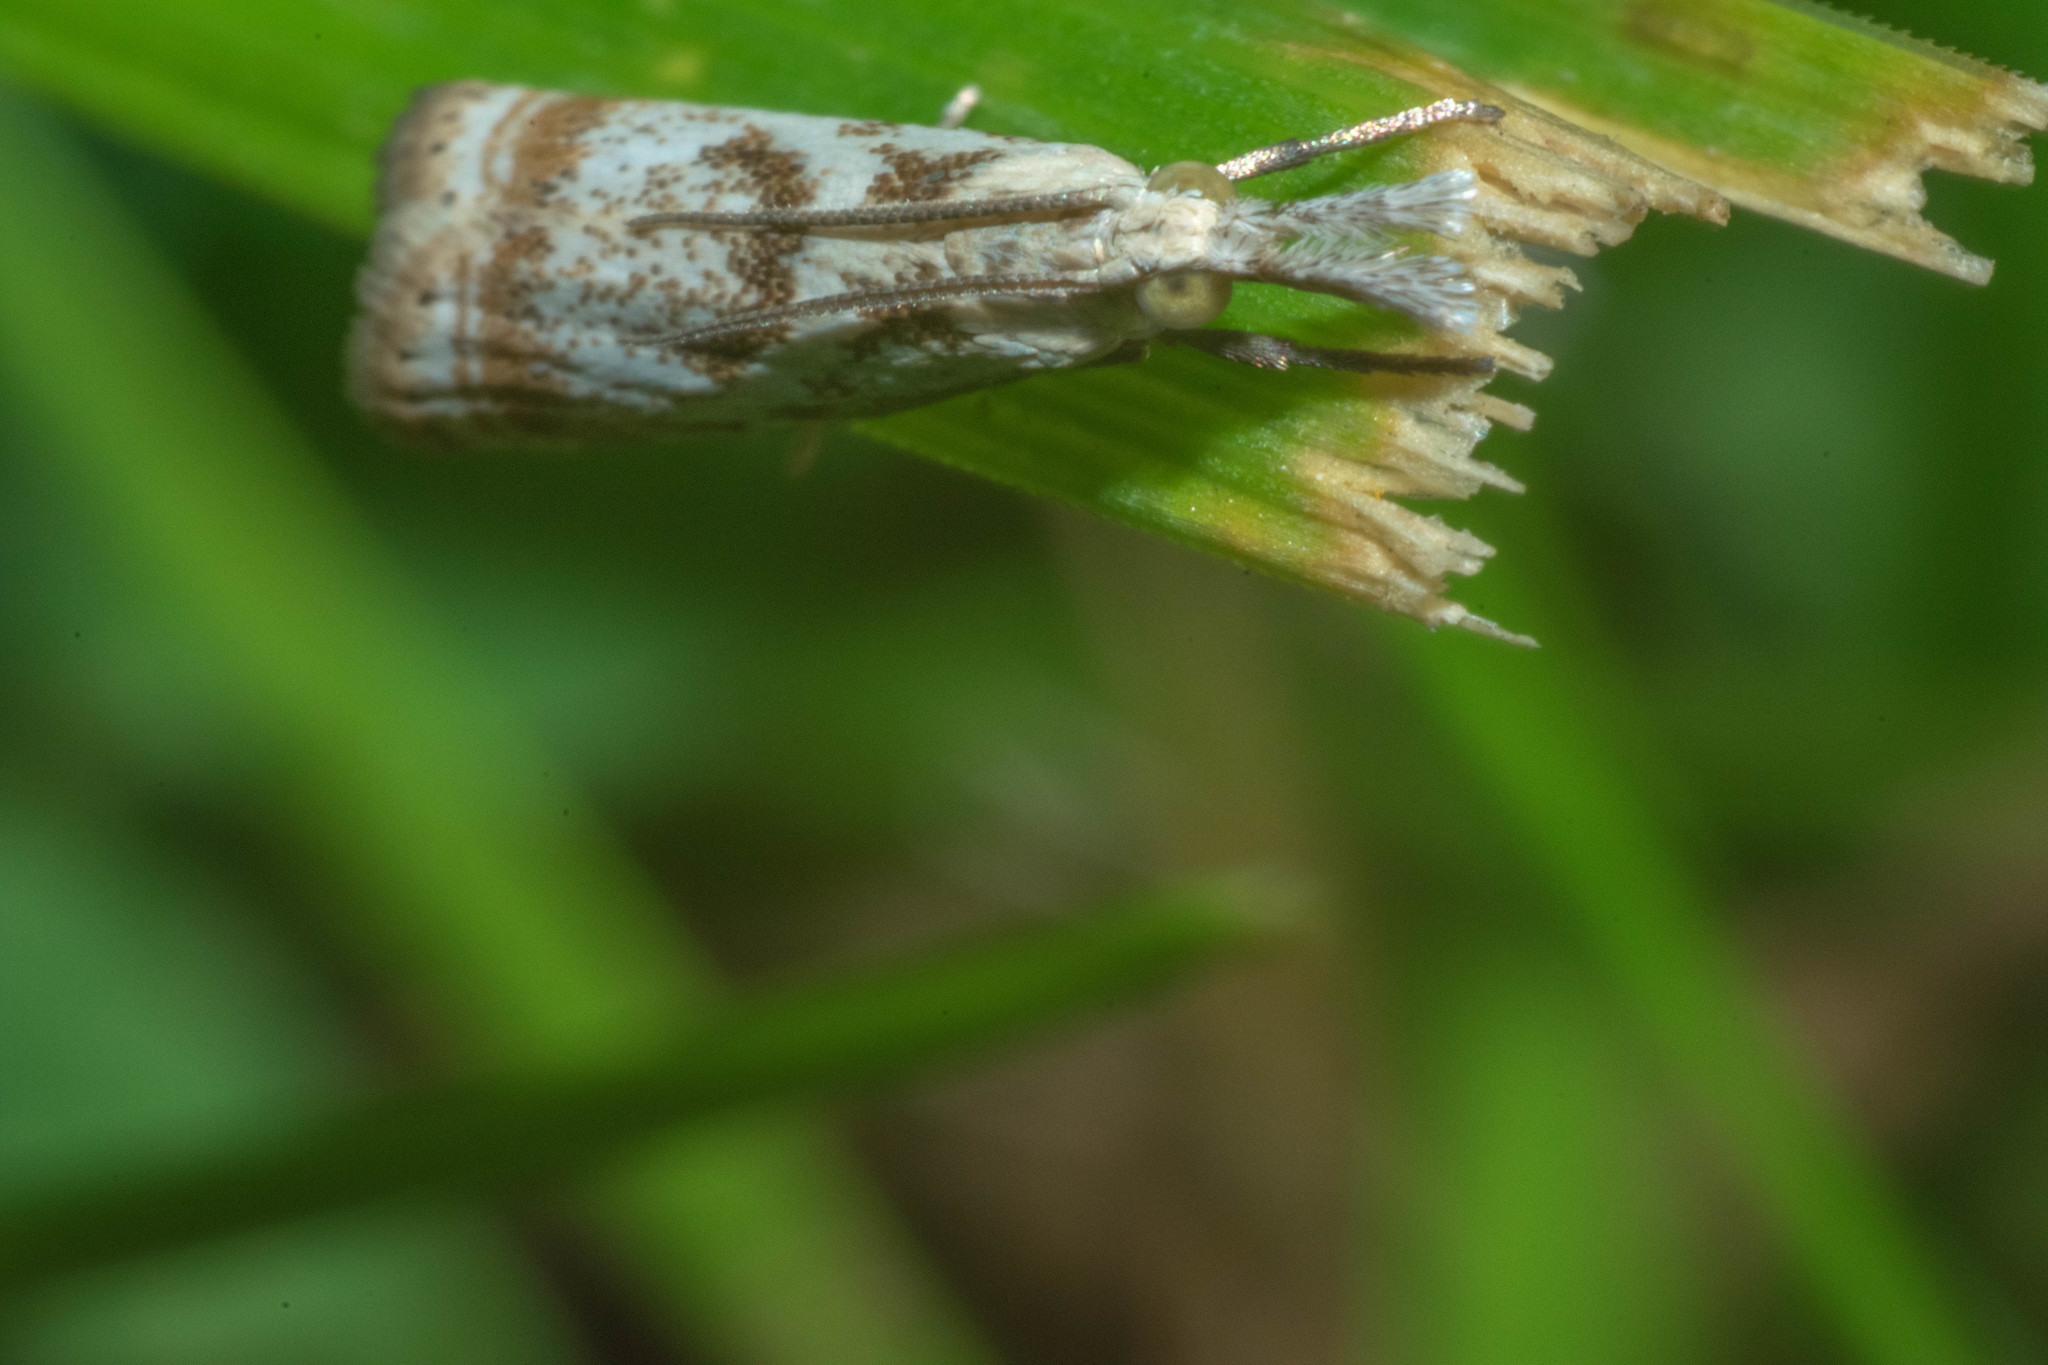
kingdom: Animalia
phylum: Arthropoda
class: Insecta
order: Lepidoptera
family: Crambidae
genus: Microcrambus
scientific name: Microcrambus elegans
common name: Elegant grass-veneer
